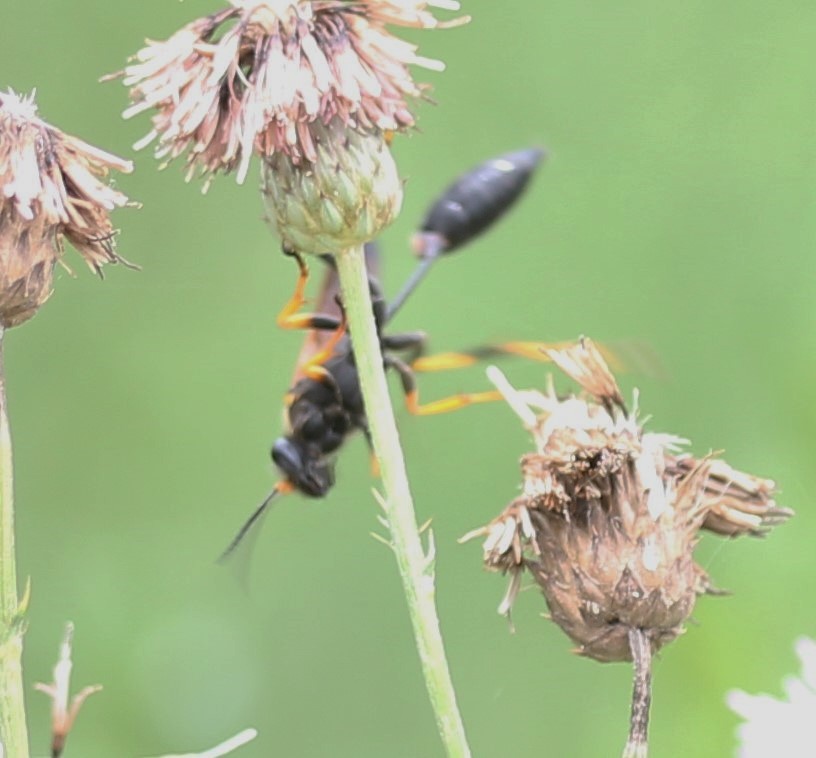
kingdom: Animalia
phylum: Arthropoda
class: Insecta
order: Hymenoptera
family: Sphecidae
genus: Sceliphron
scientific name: Sceliphron caementarium
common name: Mud dauber
